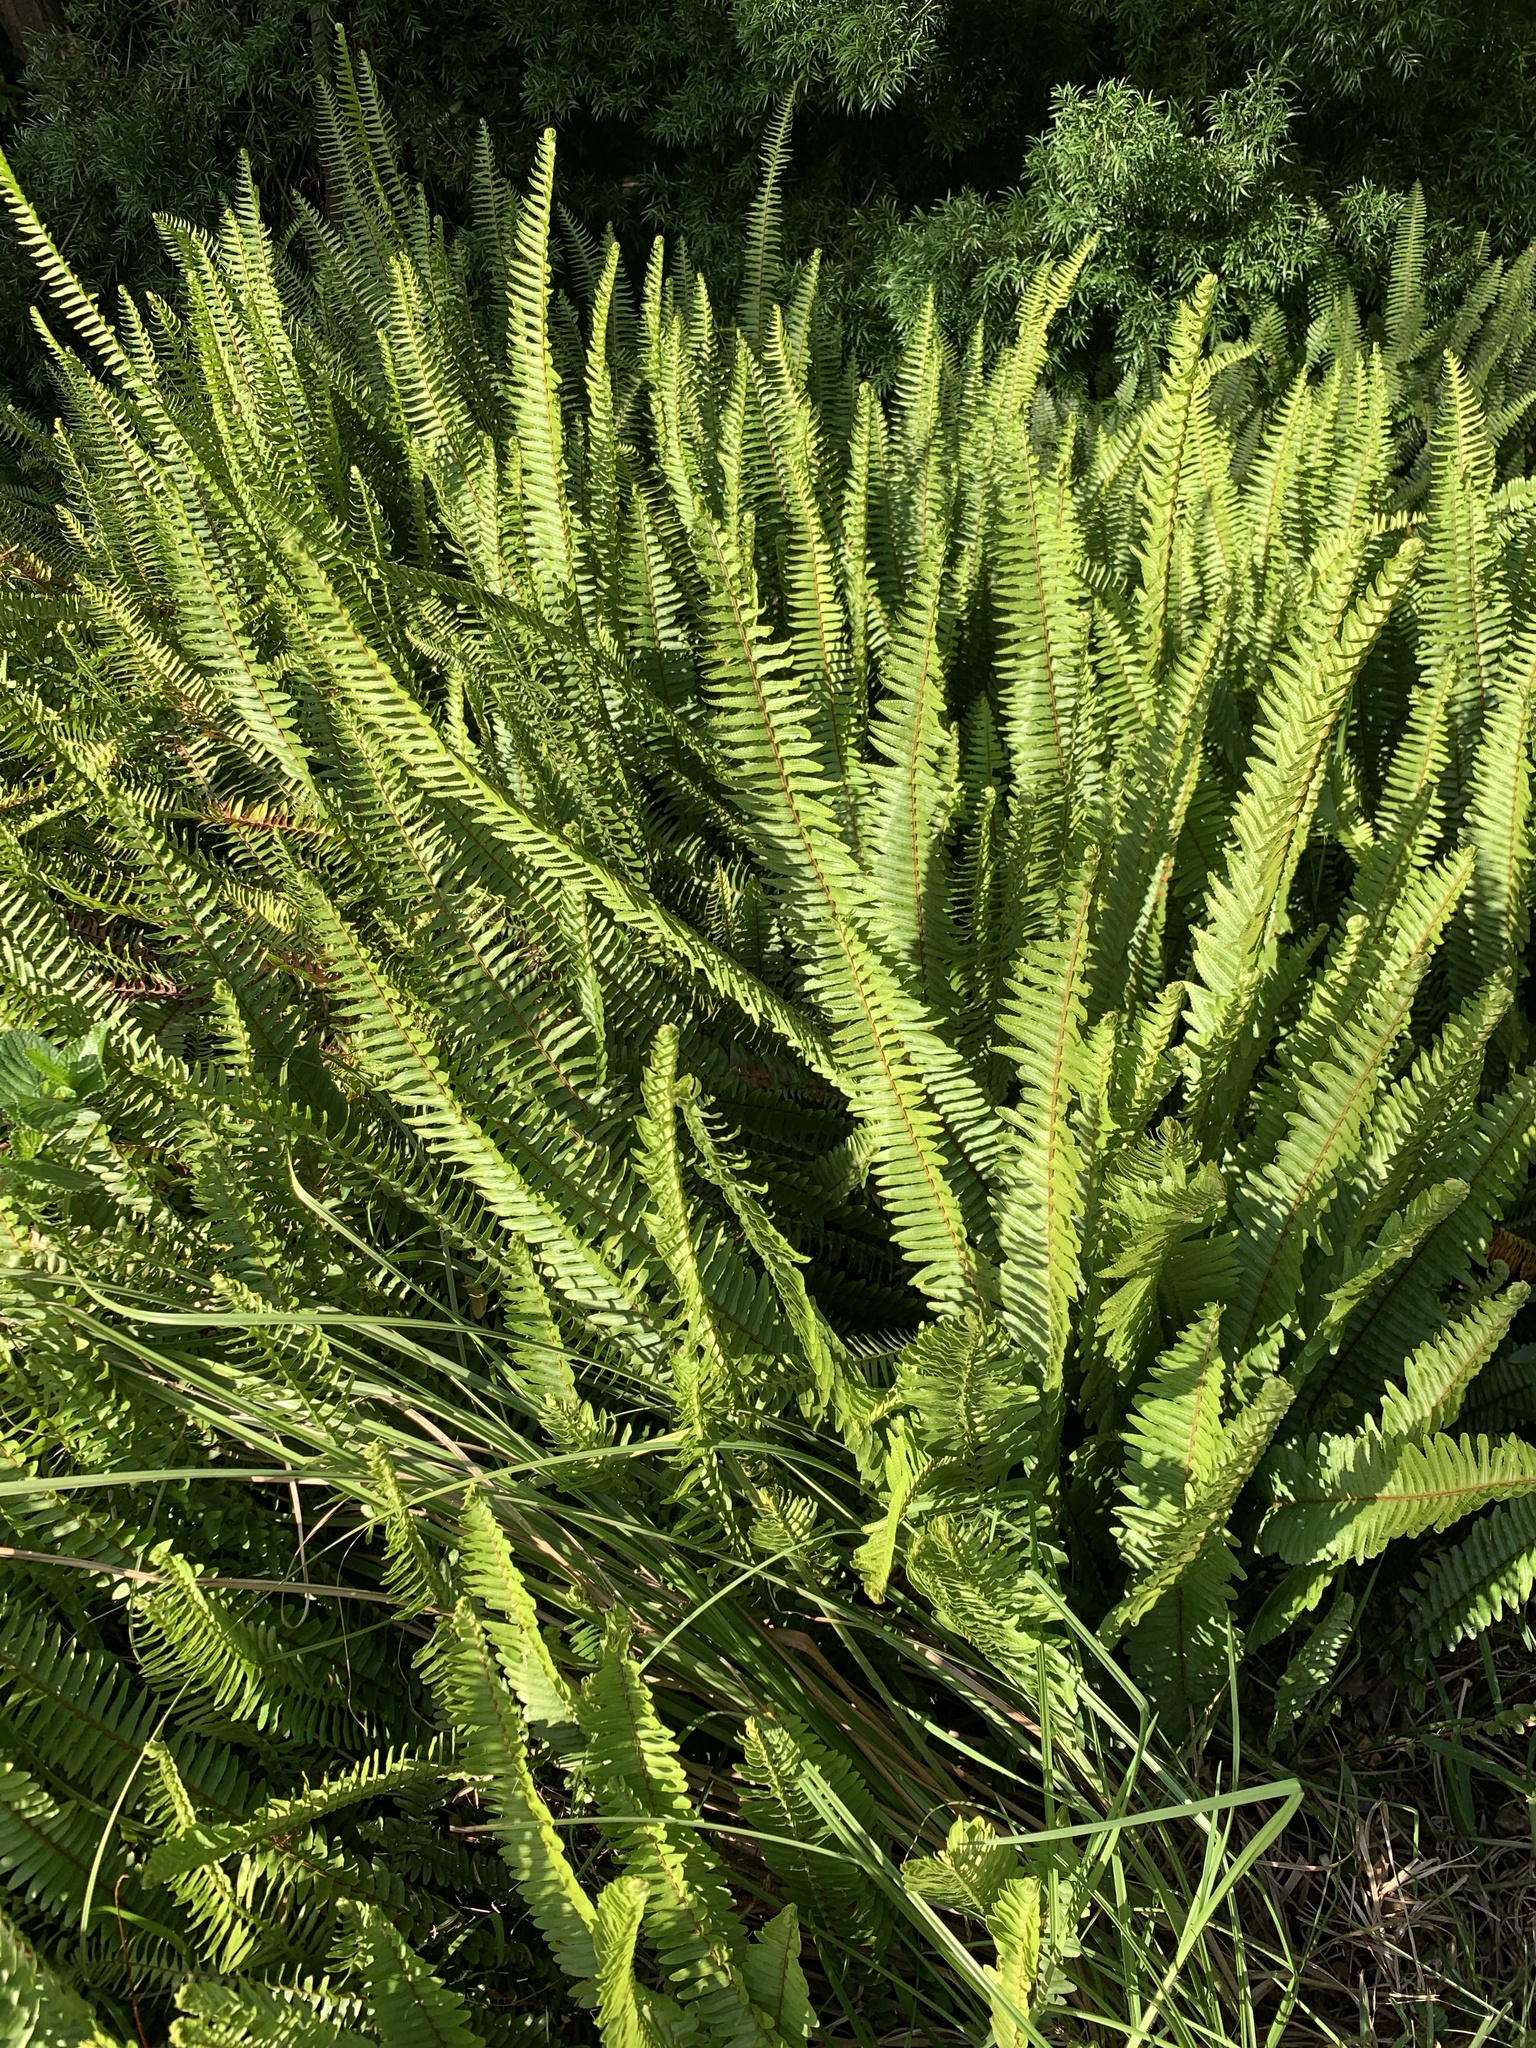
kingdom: Plantae
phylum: Tracheophyta
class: Polypodiopsida
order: Polypodiales
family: Nephrolepidaceae
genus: Nephrolepis
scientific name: Nephrolepis cordifolia
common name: Narrow swordfern
